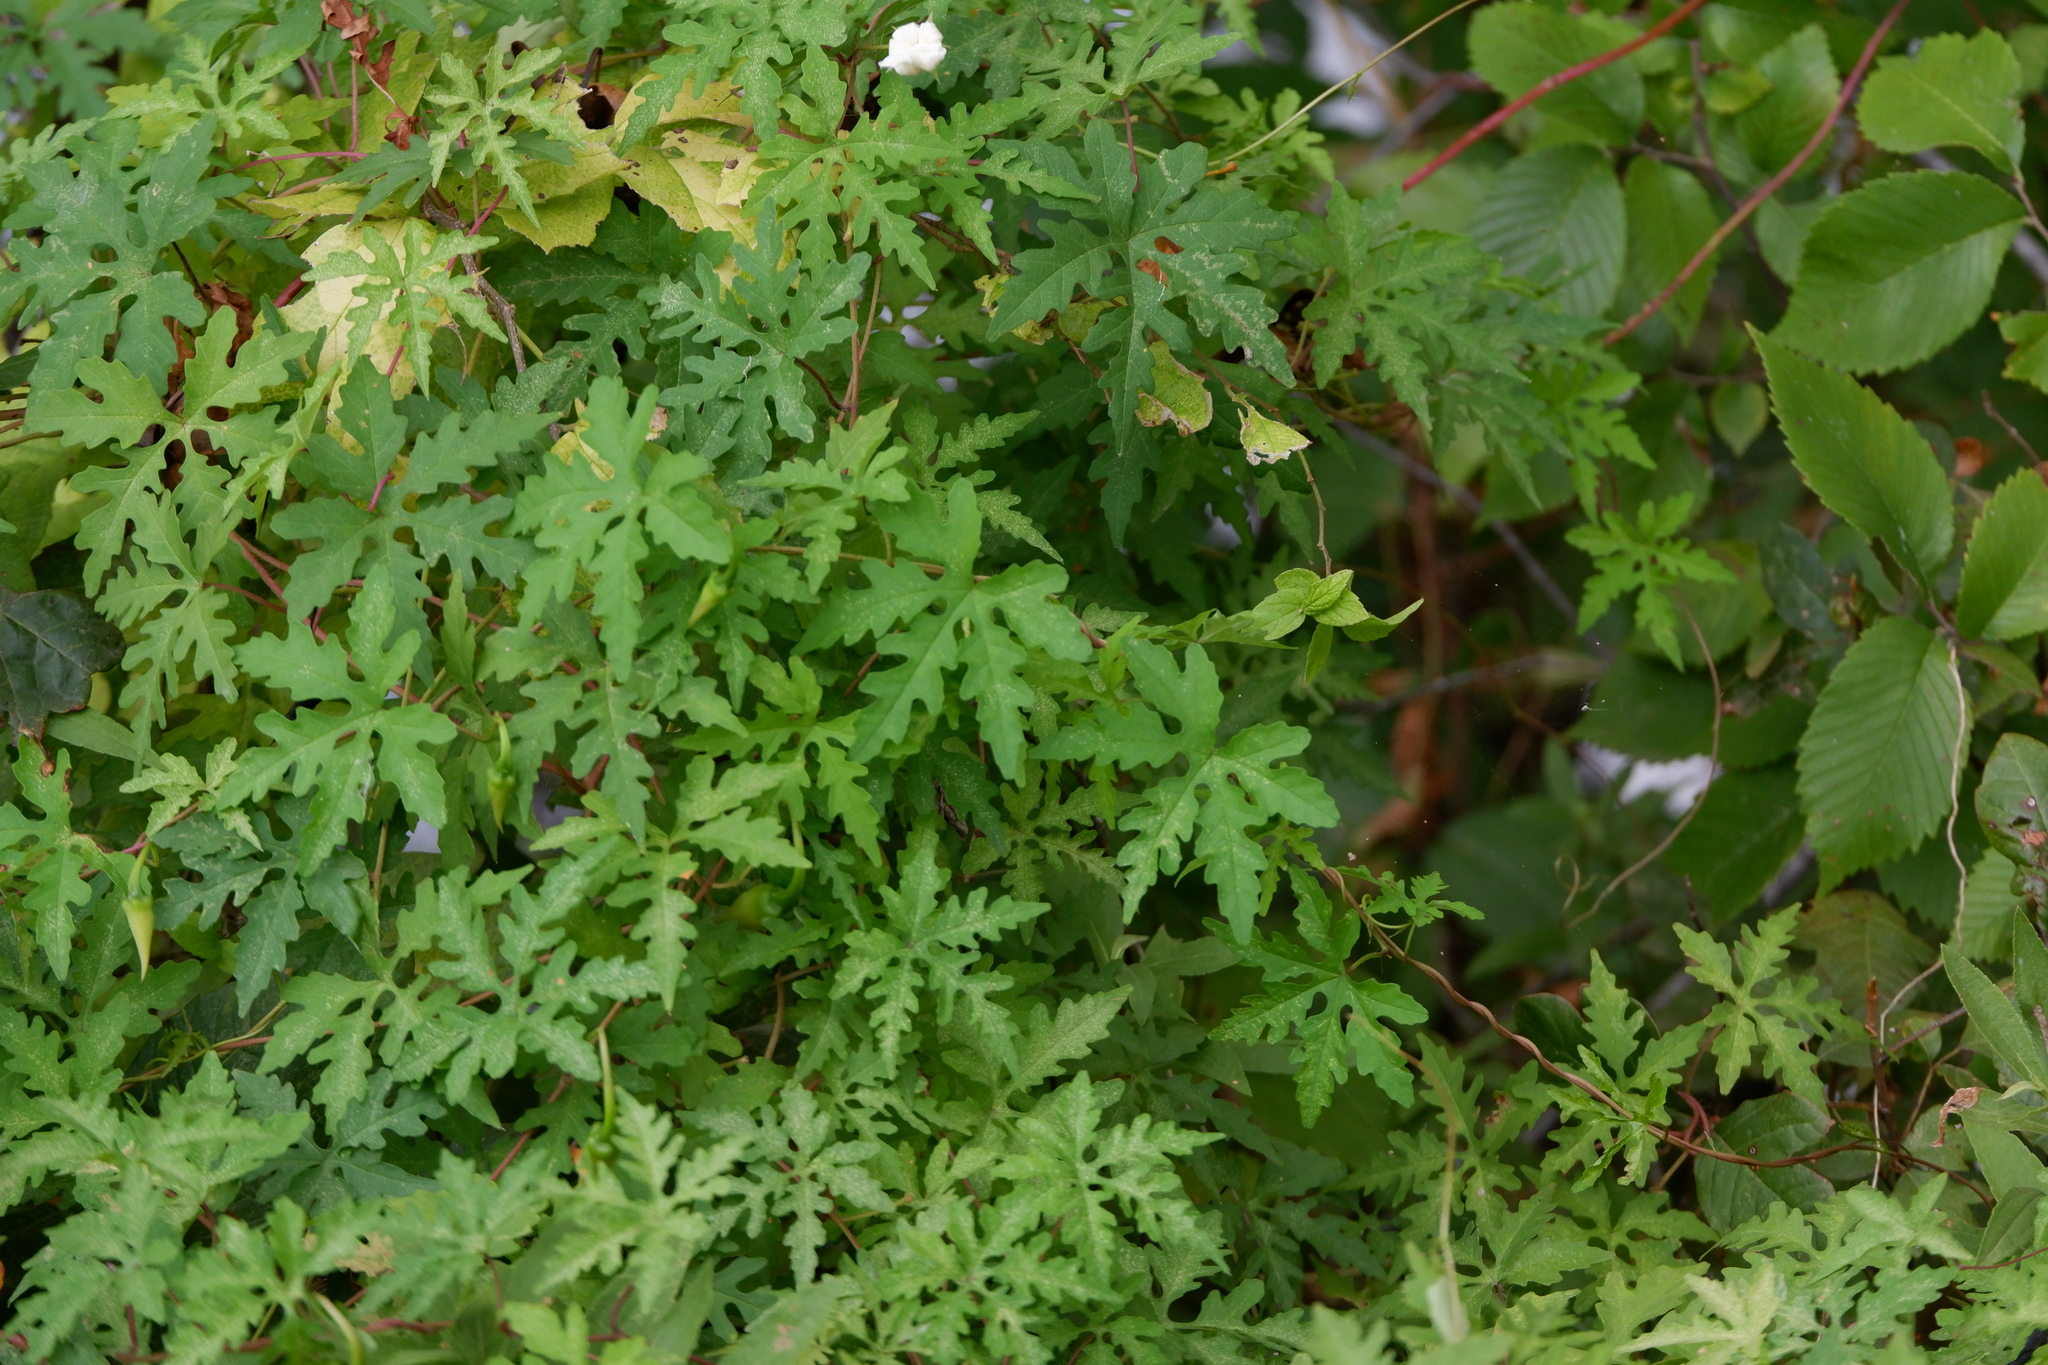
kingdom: Plantae
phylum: Tracheophyta
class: Magnoliopsida
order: Solanales
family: Convolvulaceae
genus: Distimake
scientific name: Distimake dissectus
